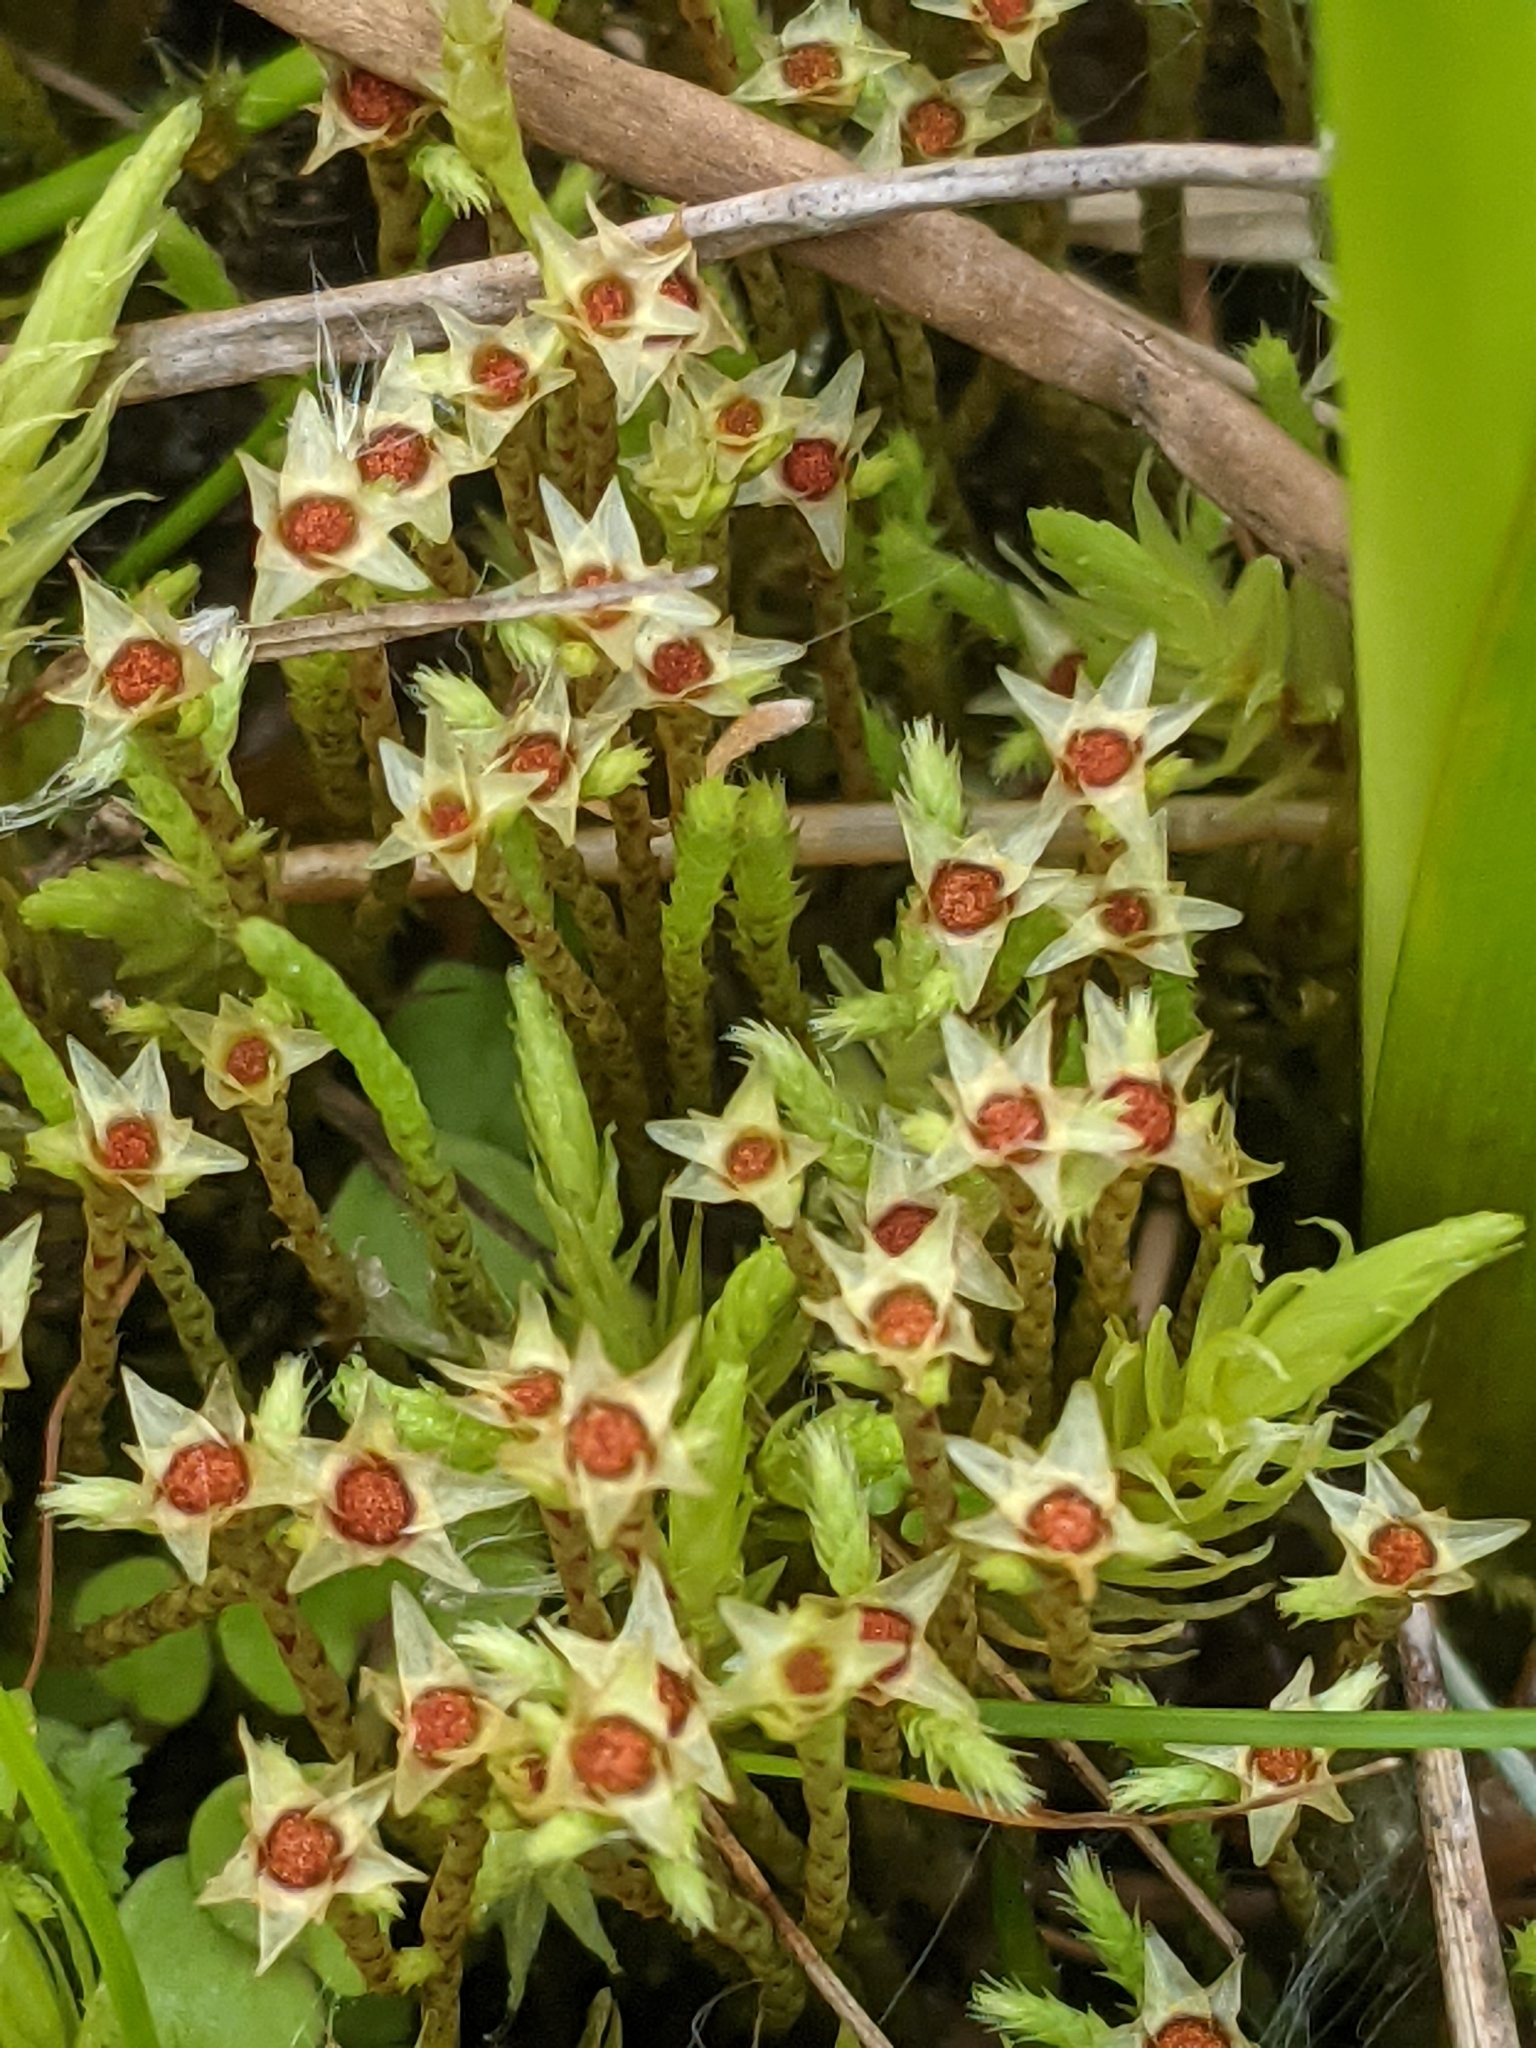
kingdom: Plantae
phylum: Bryophyta
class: Bryopsida
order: Bartramiales
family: Bartramiaceae
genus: Philonotis
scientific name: Philonotis fontana
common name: Fountain apple-moss
